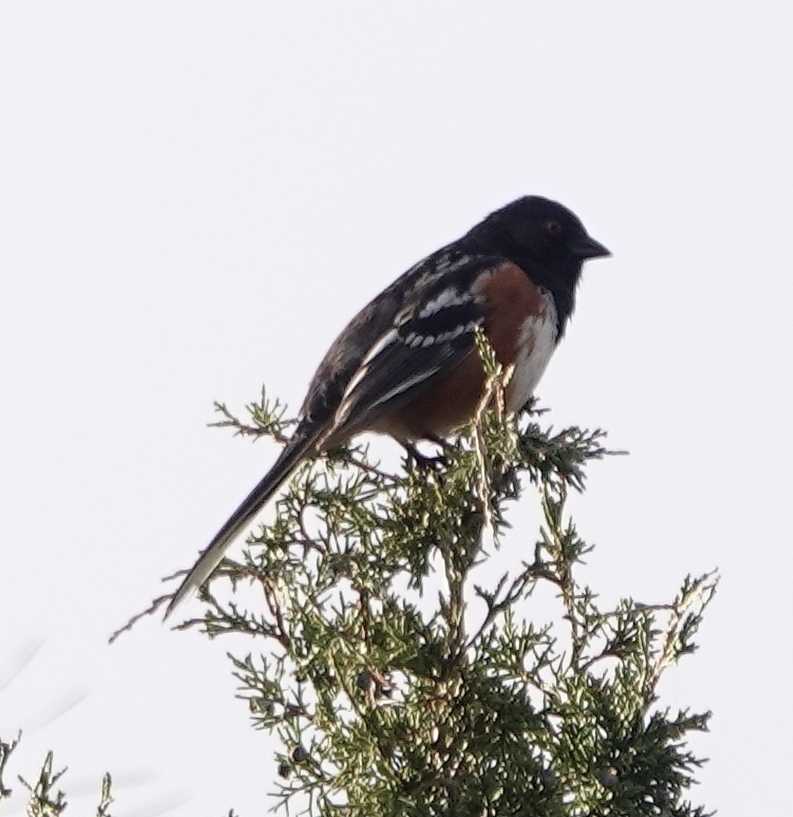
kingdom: Animalia
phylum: Chordata
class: Aves
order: Passeriformes
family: Passerellidae
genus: Pipilo
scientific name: Pipilo maculatus
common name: Spotted towhee
